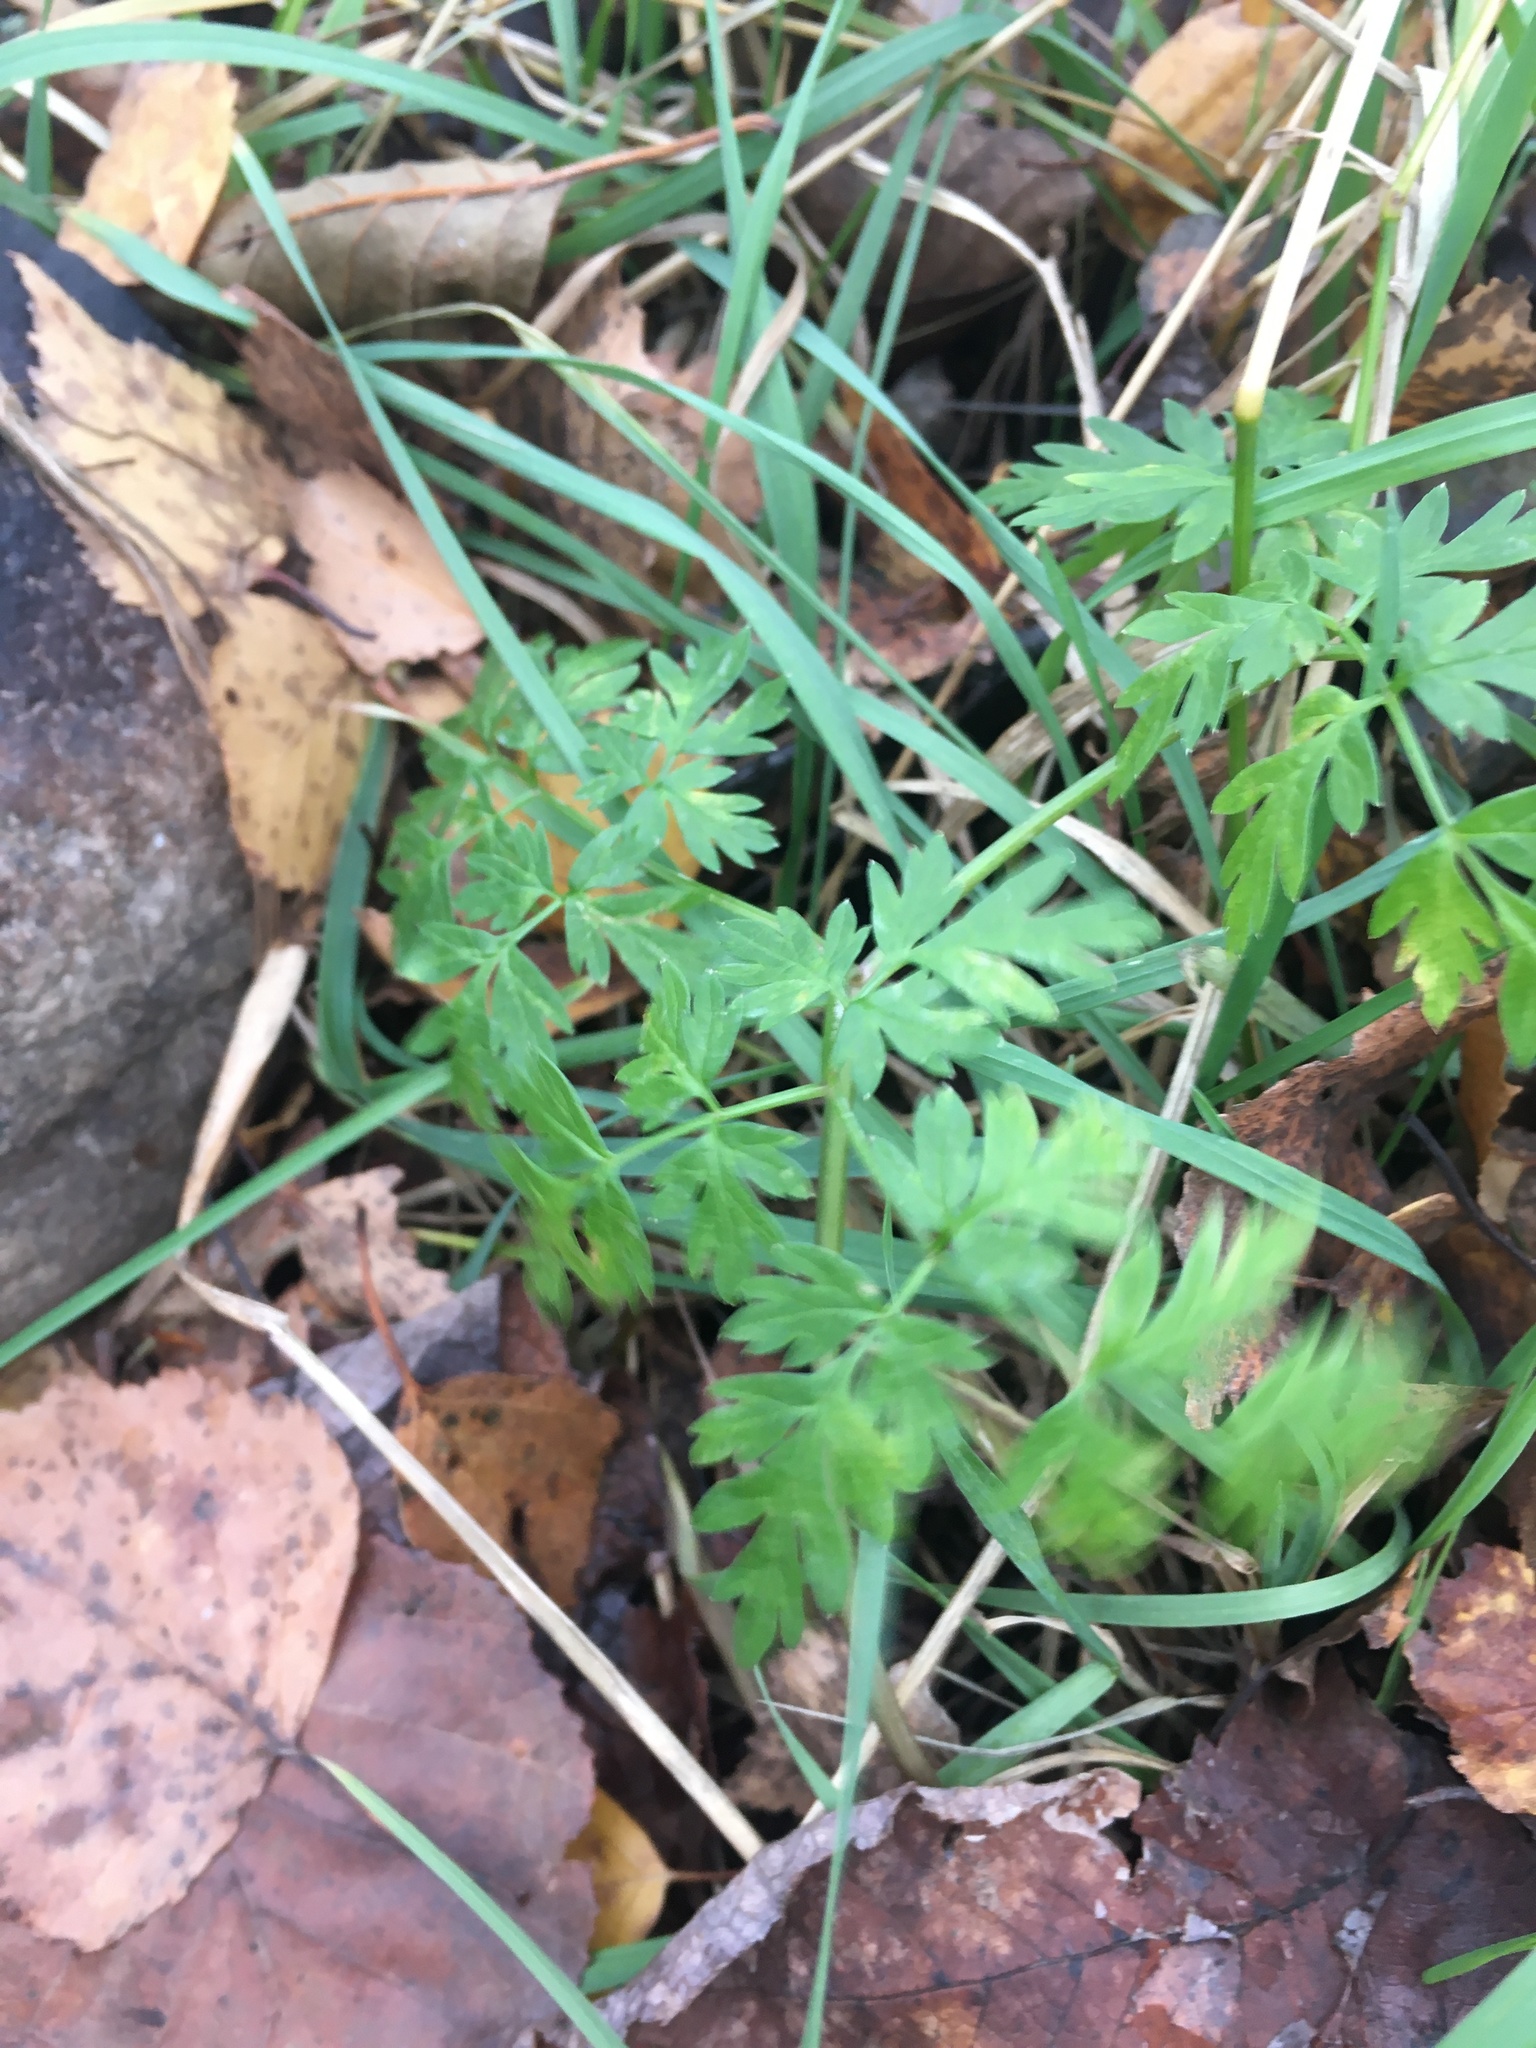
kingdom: Plantae
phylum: Tracheophyta
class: Magnoliopsida
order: Apiales
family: Apiaceae
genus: Anthriscus
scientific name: Anthriscus sylvestris
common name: Cow parsley
